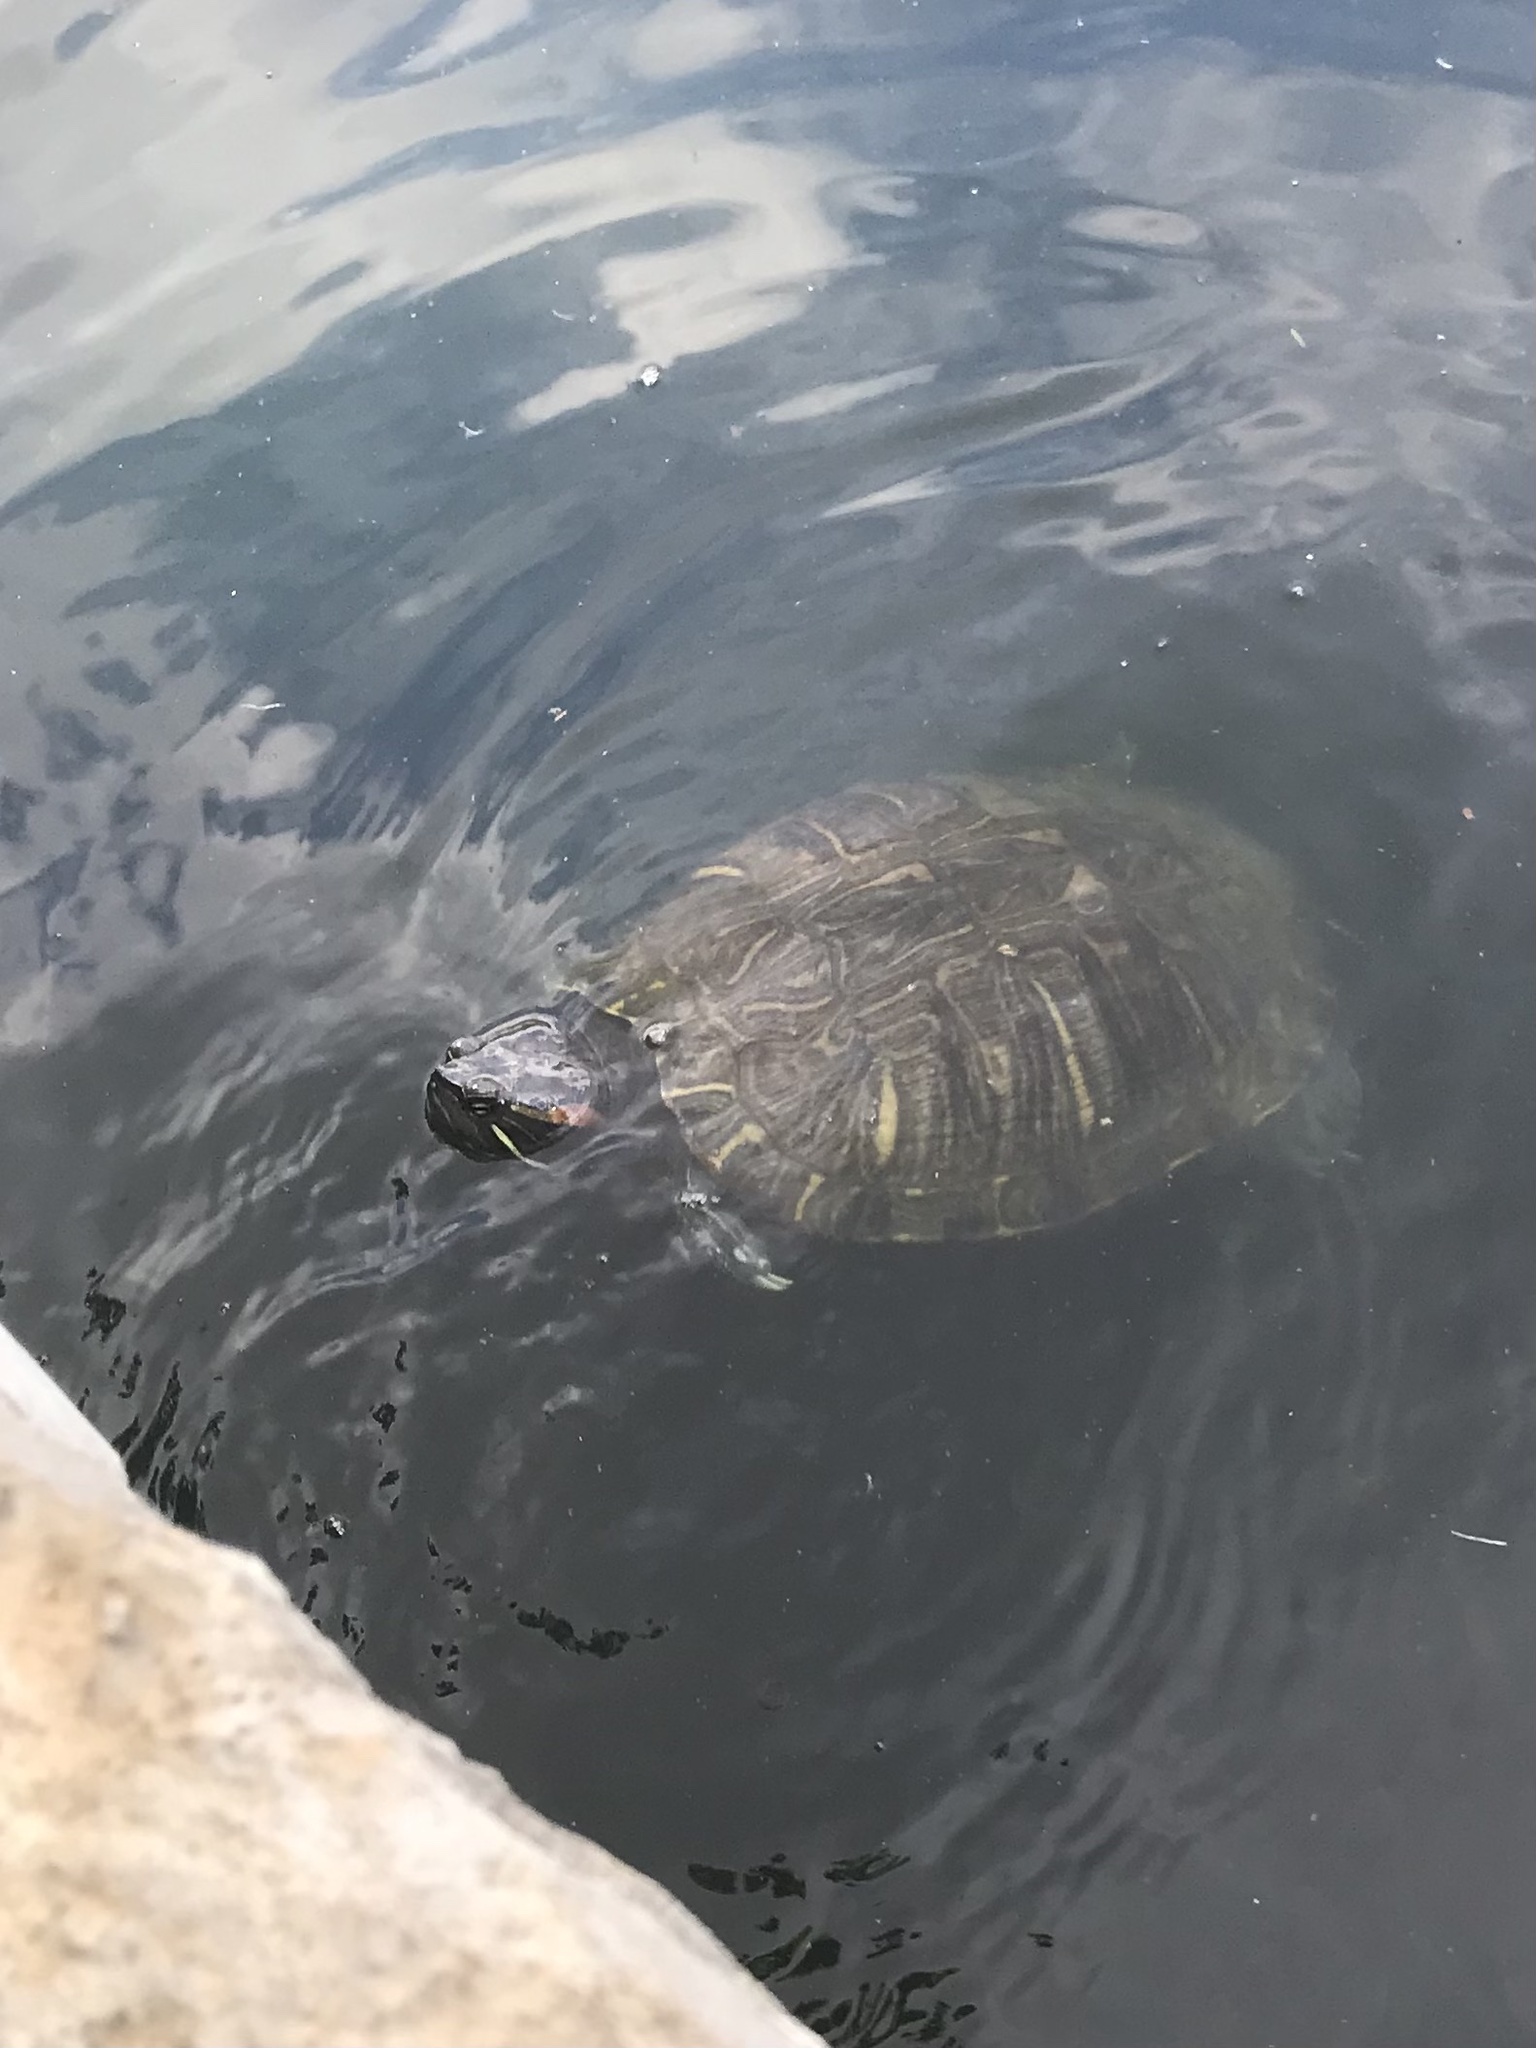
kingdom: Animalia
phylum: Chordata
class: Testudines
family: Emydidae
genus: Trachemys
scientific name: Trachemys scripta
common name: Slider
